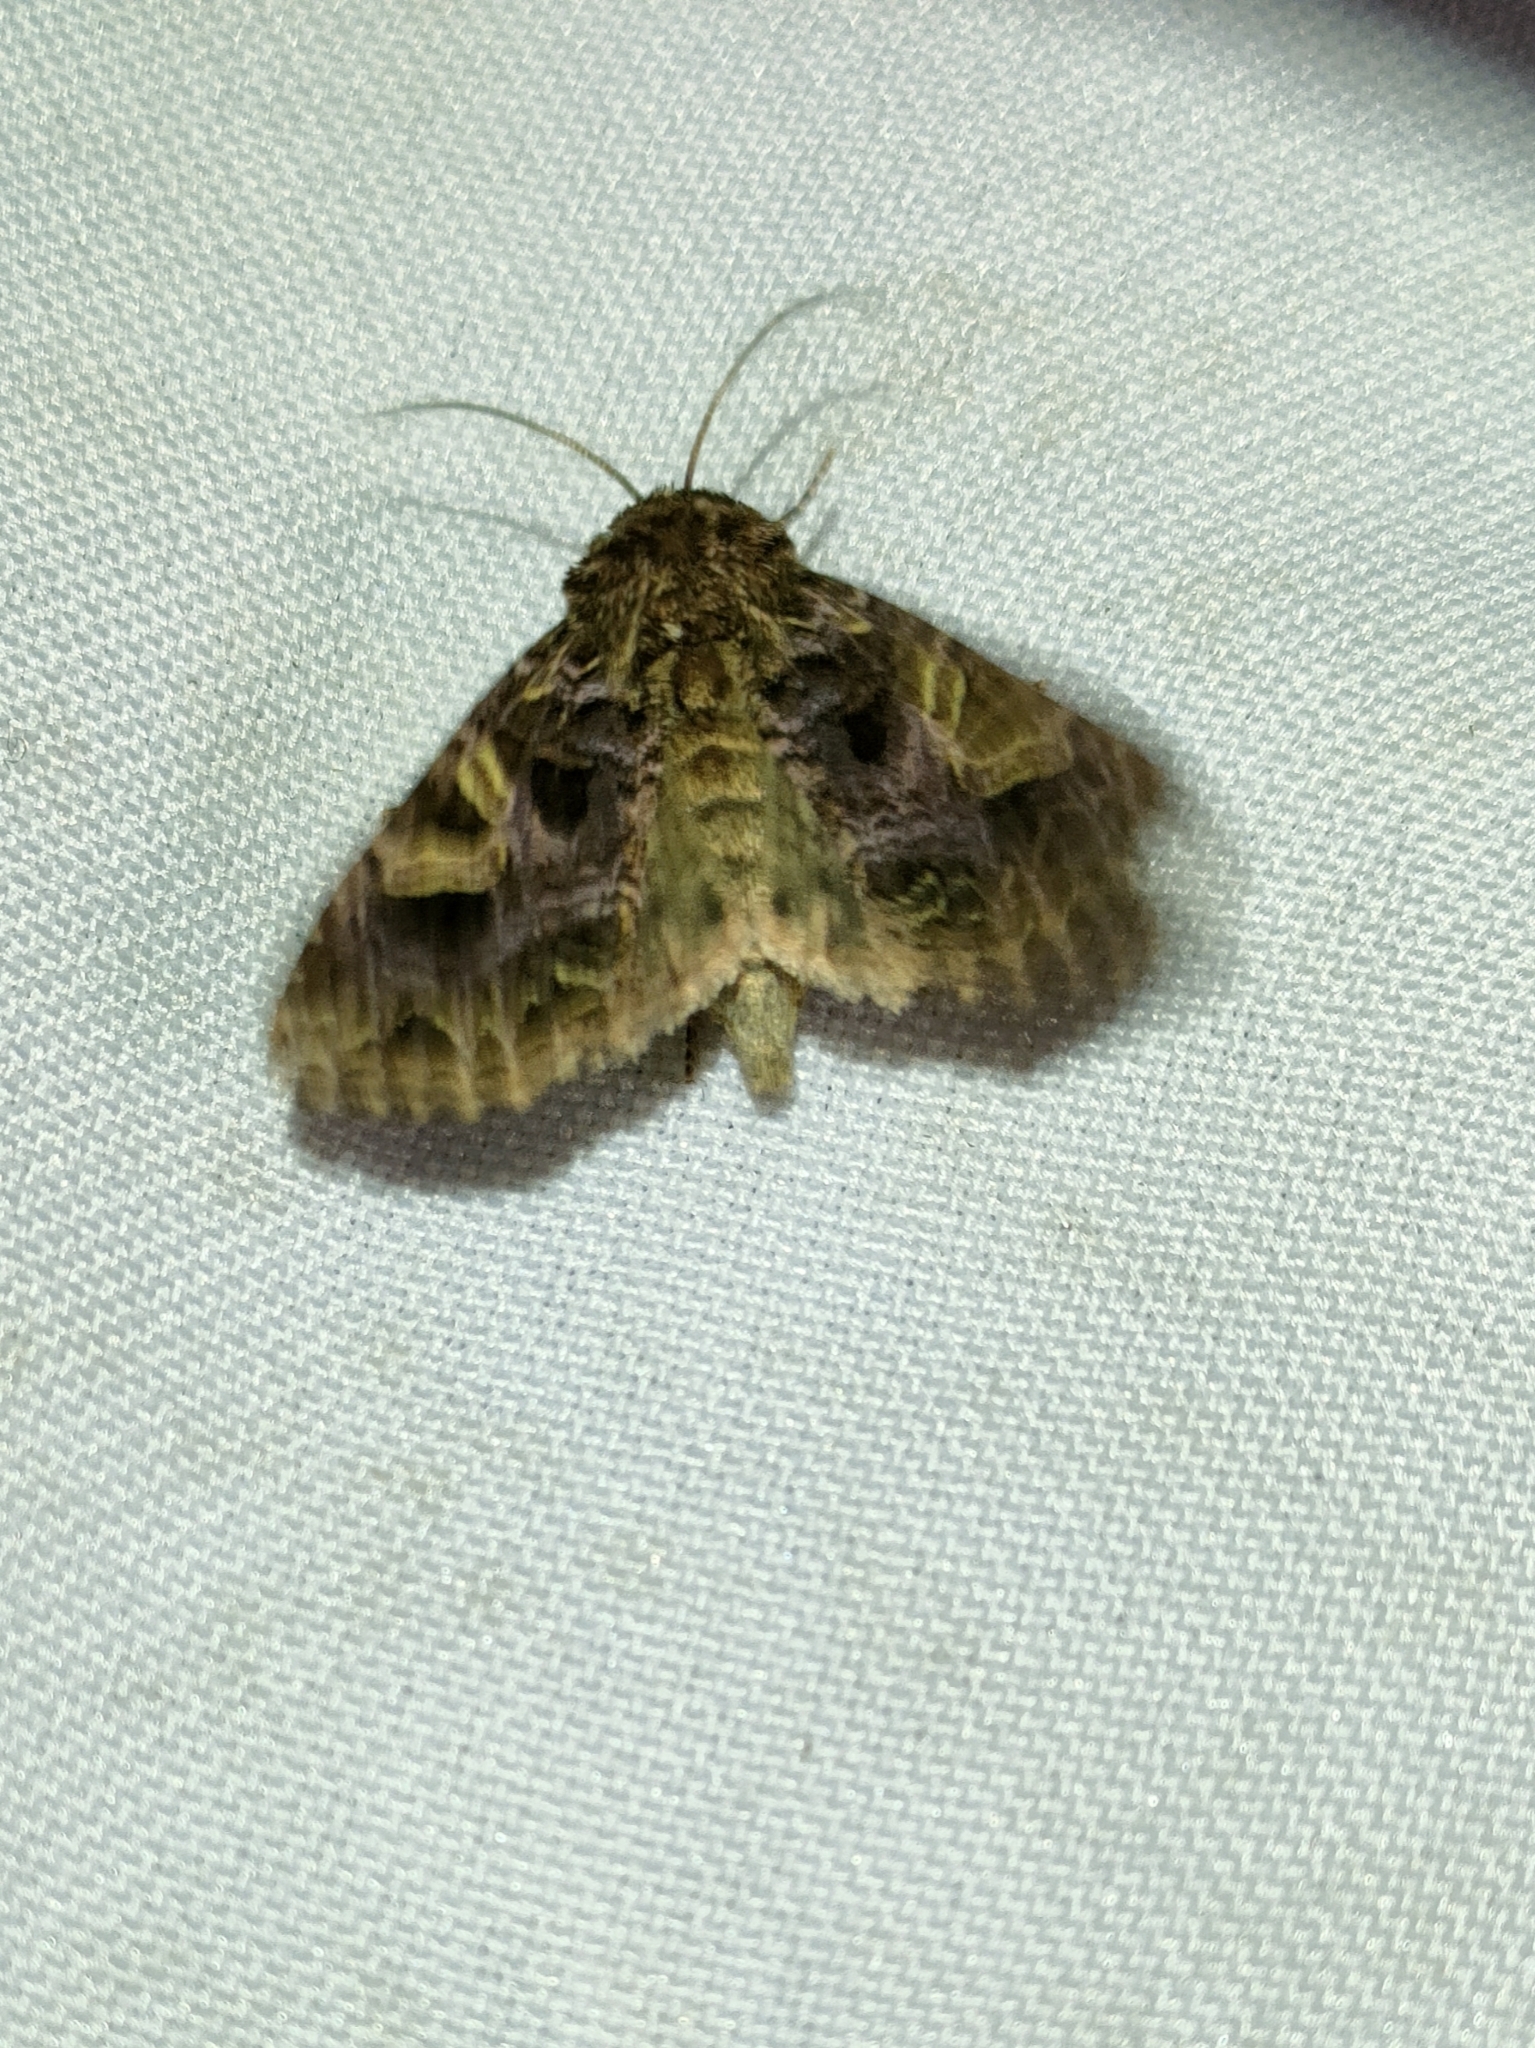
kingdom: Animalia
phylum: Arthropoda
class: Insecta
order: Lepidoptera
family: Noctuidae
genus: Sideridis
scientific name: Sideridis rivularis
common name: Campion
